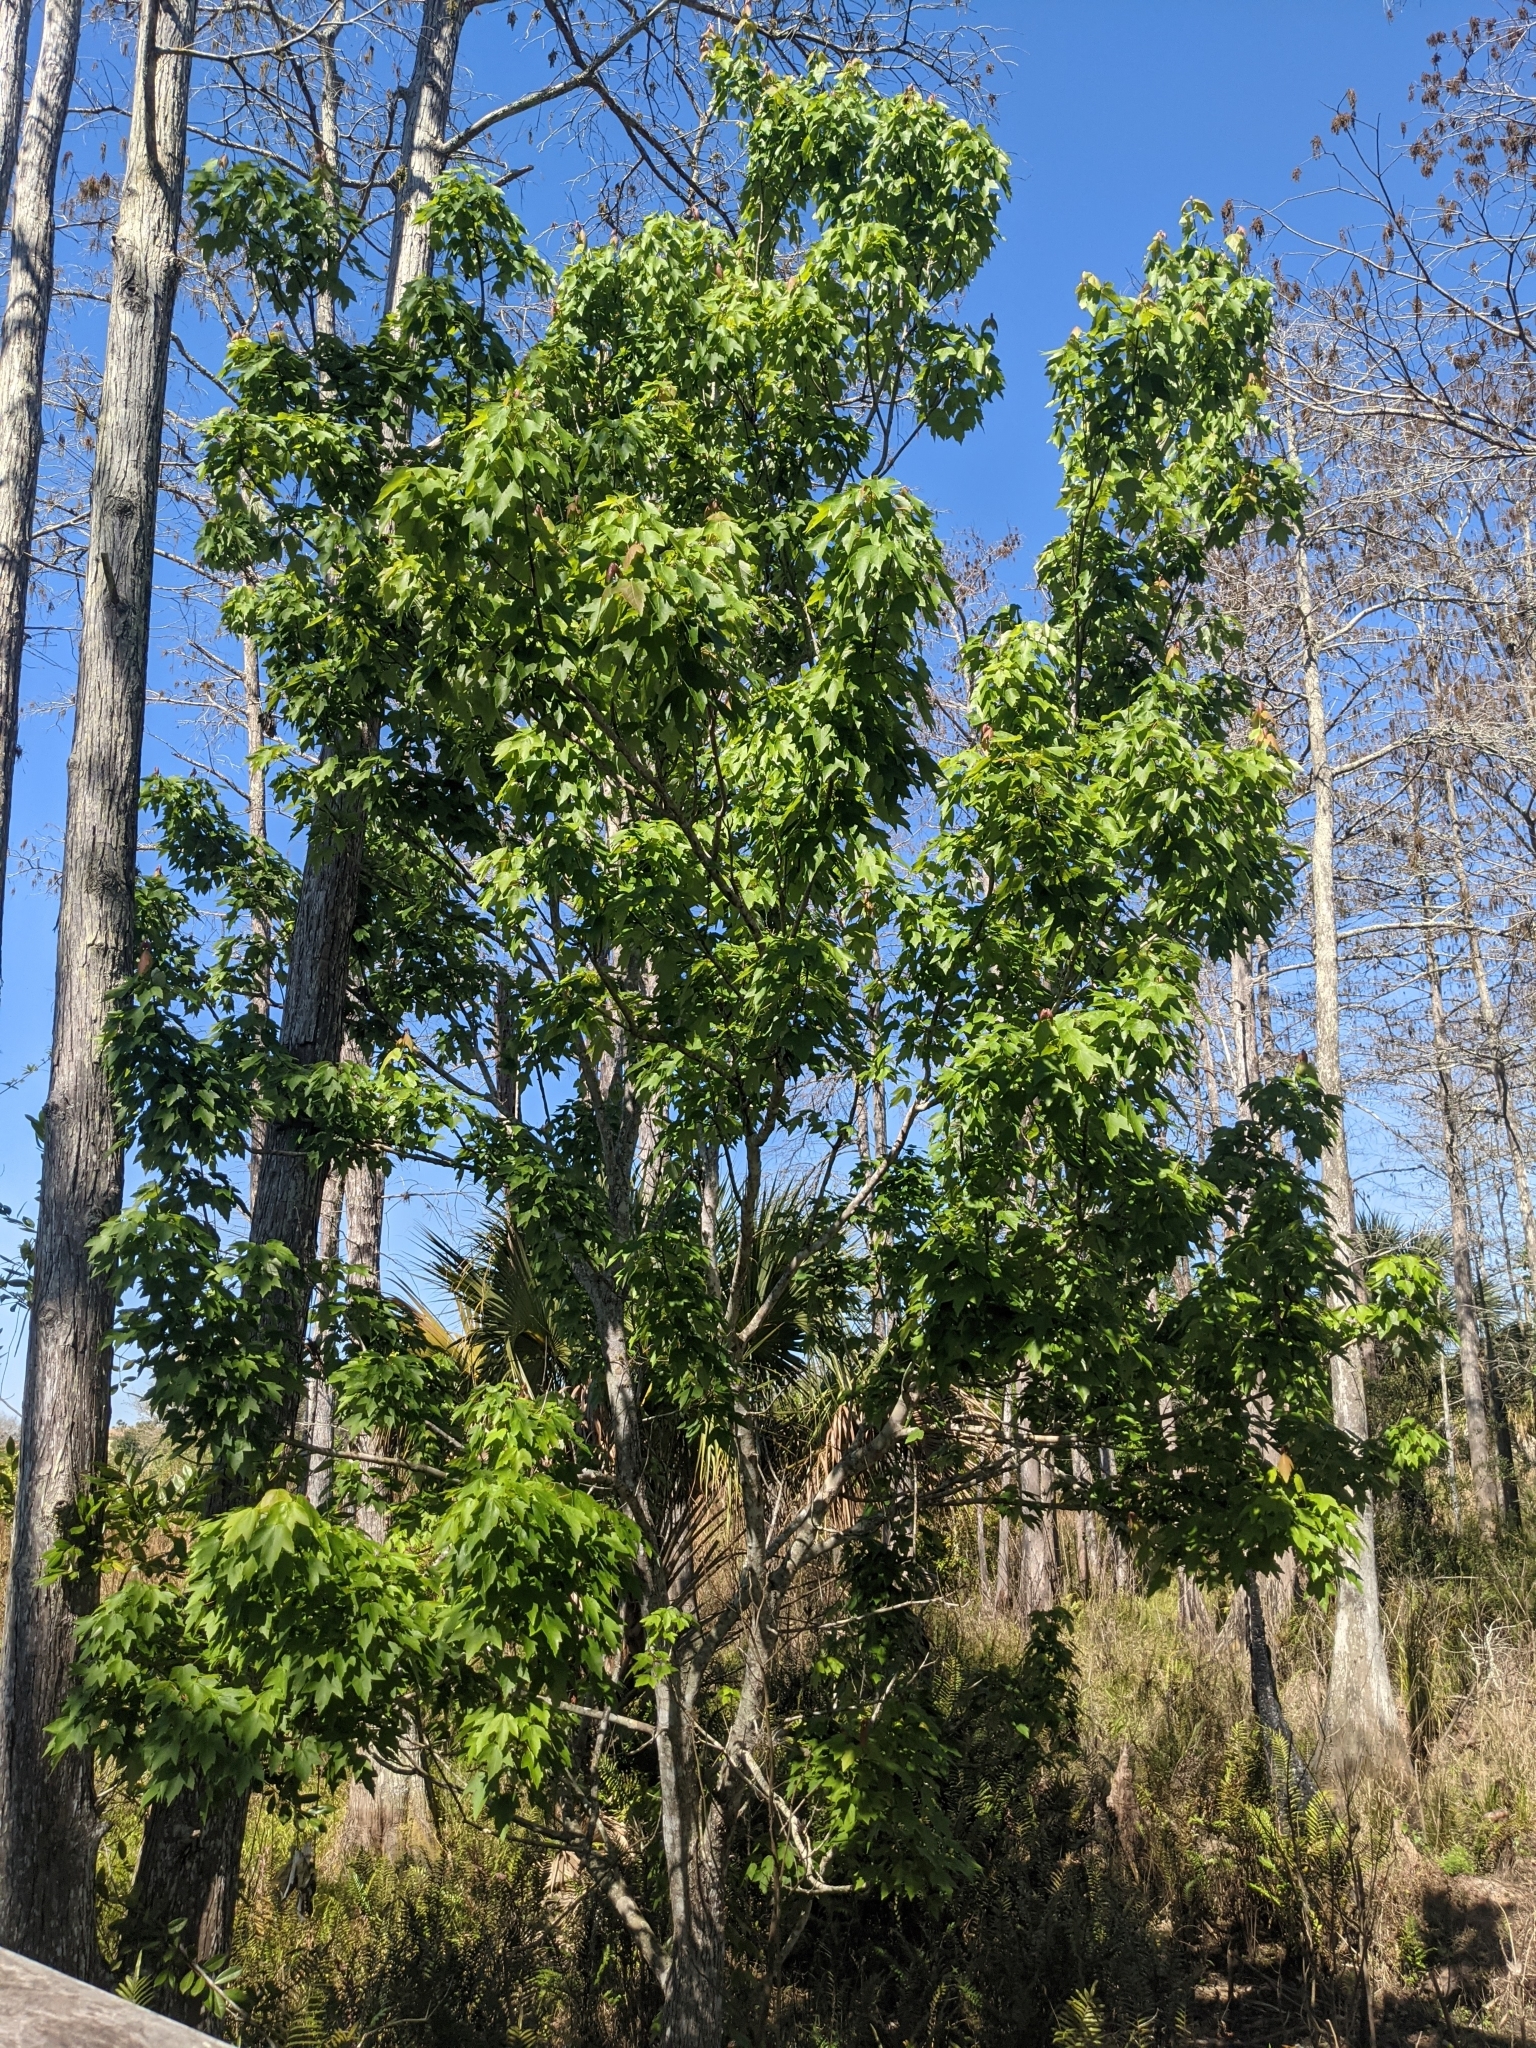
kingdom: Plantae
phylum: Tracheophyta
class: Magnoliopsida
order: Sapindales
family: Sapindaceae
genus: Acer
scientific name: Acer rubrum
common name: Red maple
